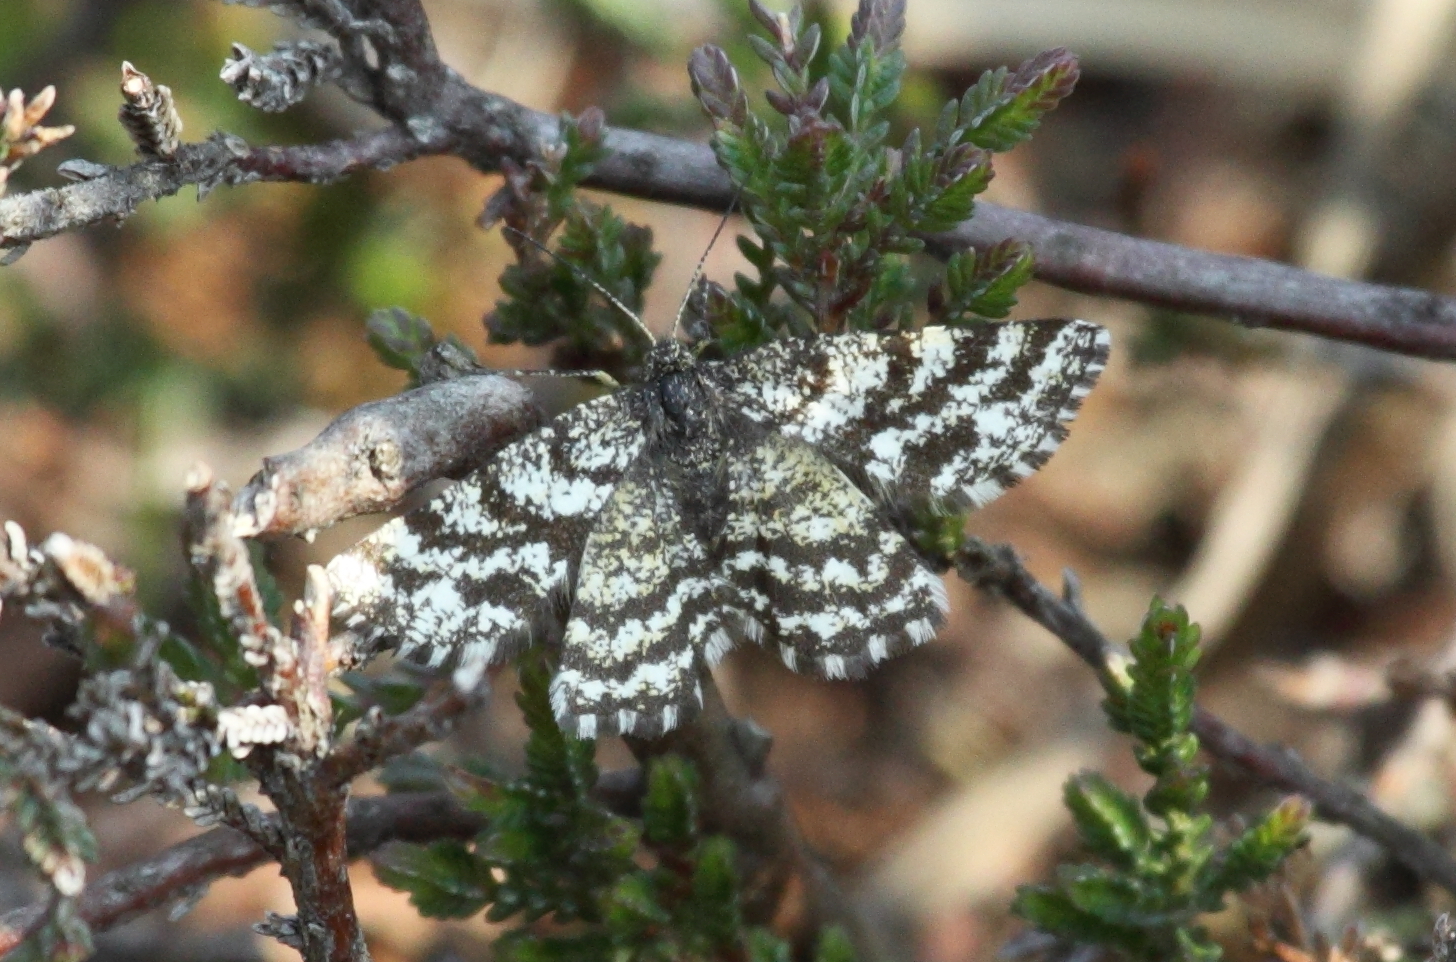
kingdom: Animalia
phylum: Arthropoda
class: Insecta
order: Lepidoptera
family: Geometridae
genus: Ematurga
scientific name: Ematurga atomaria
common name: Common heath
